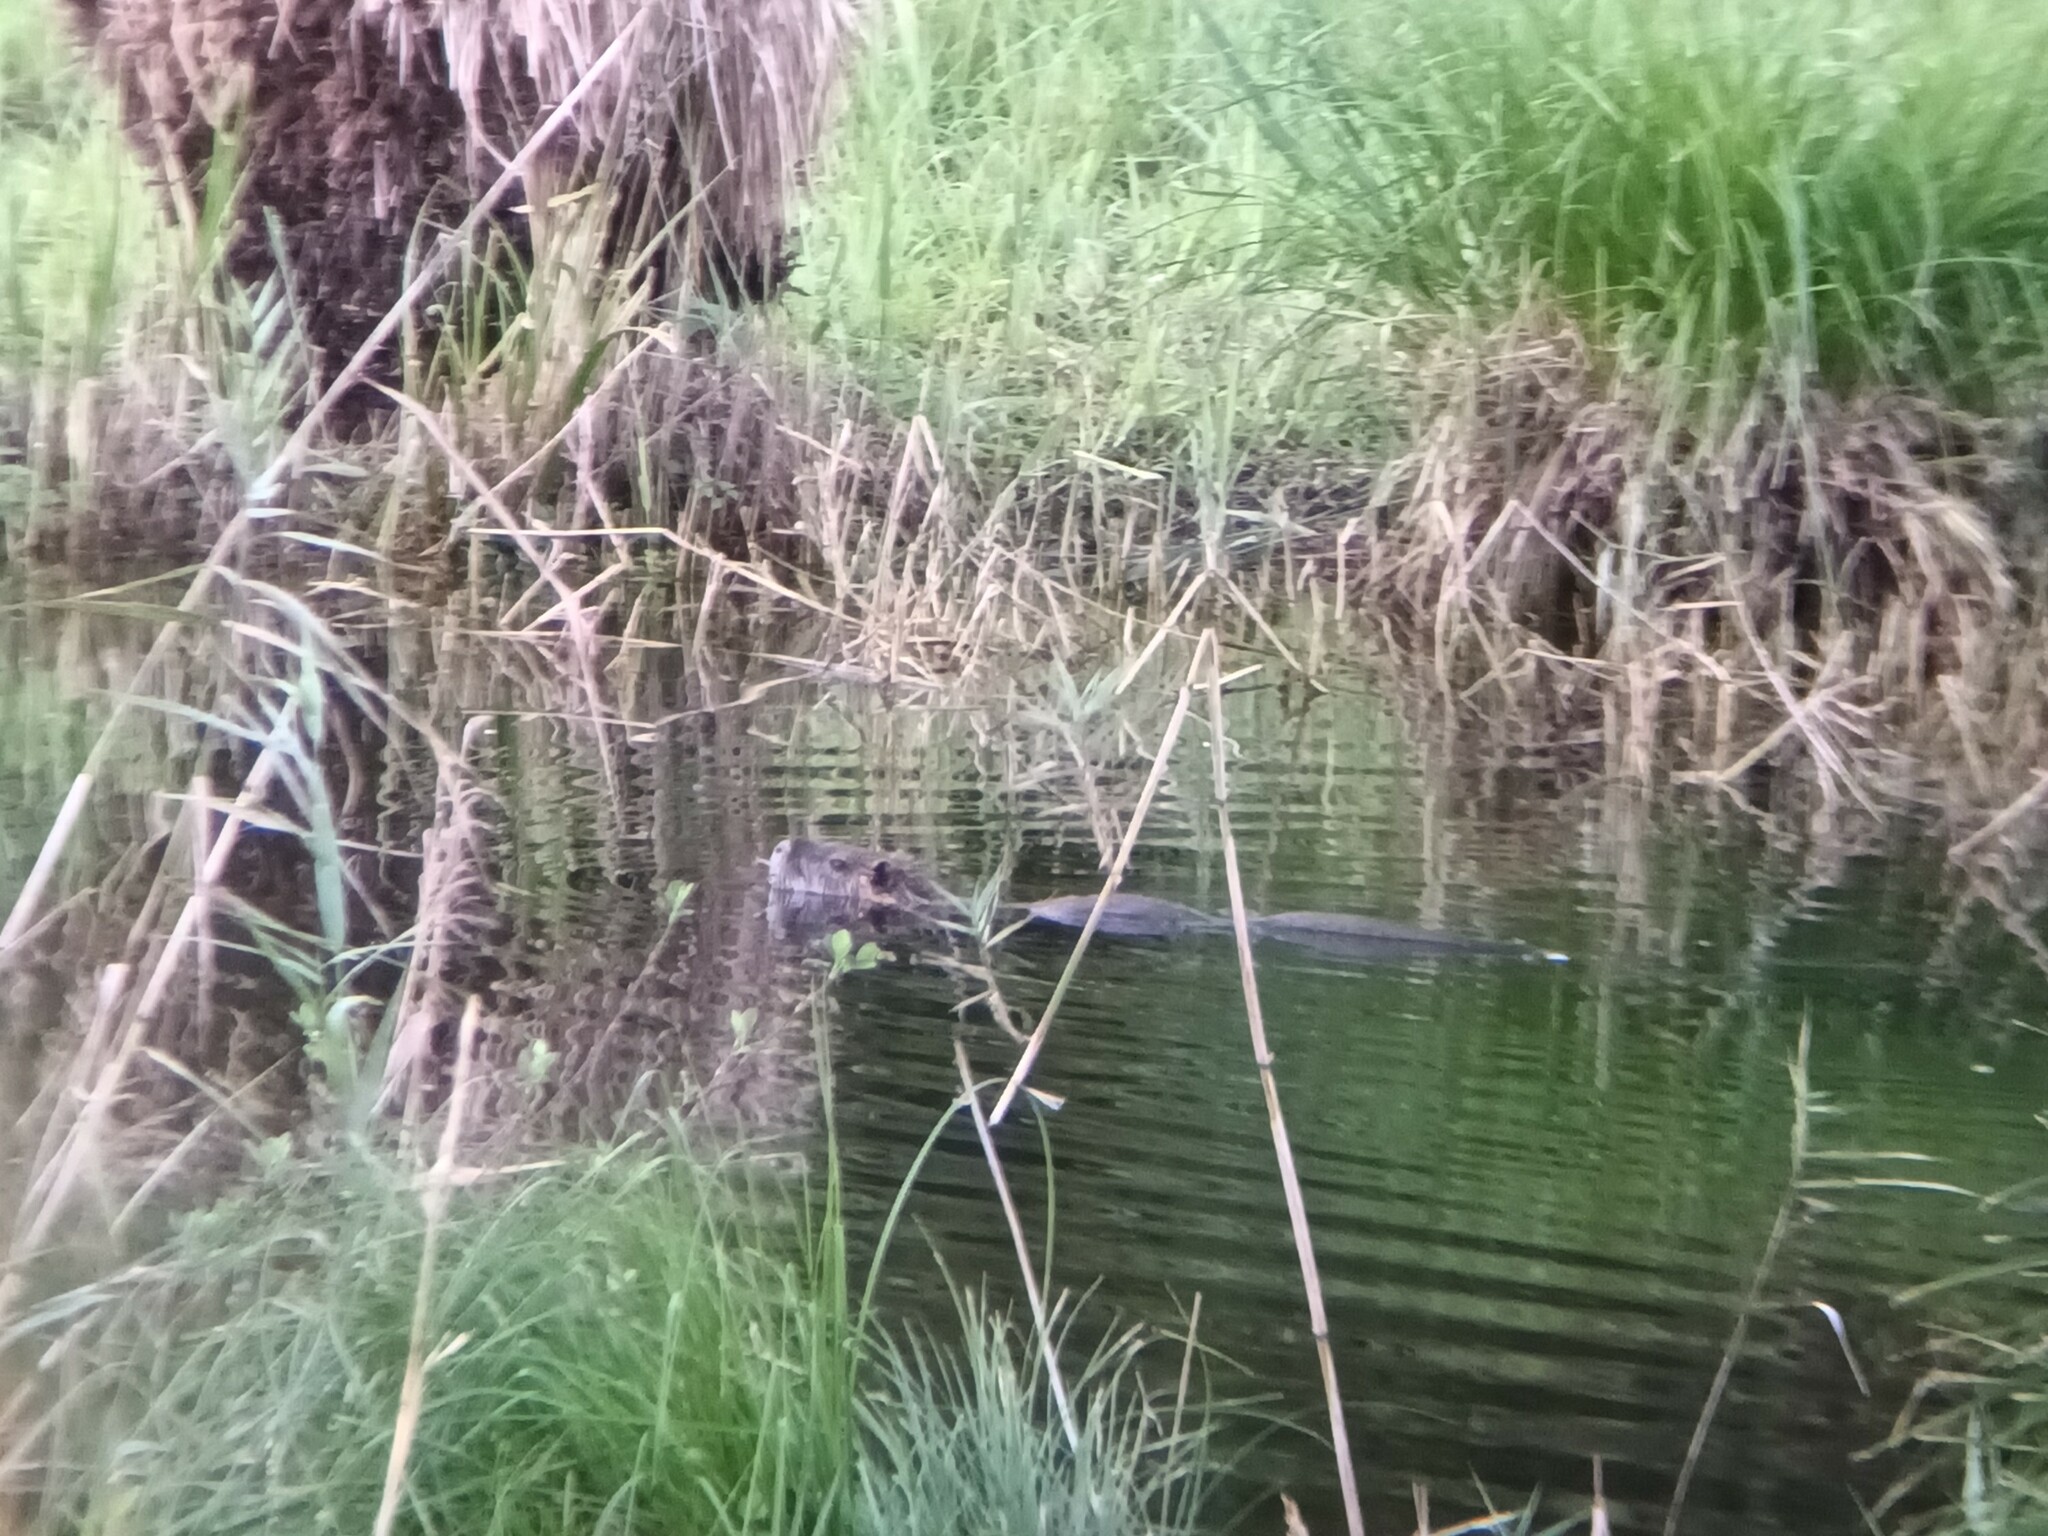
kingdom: Animalia
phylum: Chordata
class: Mammalia
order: Rodentia
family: Myocastoridae
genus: Myocastor
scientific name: Myocastor coypus
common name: Coypu
